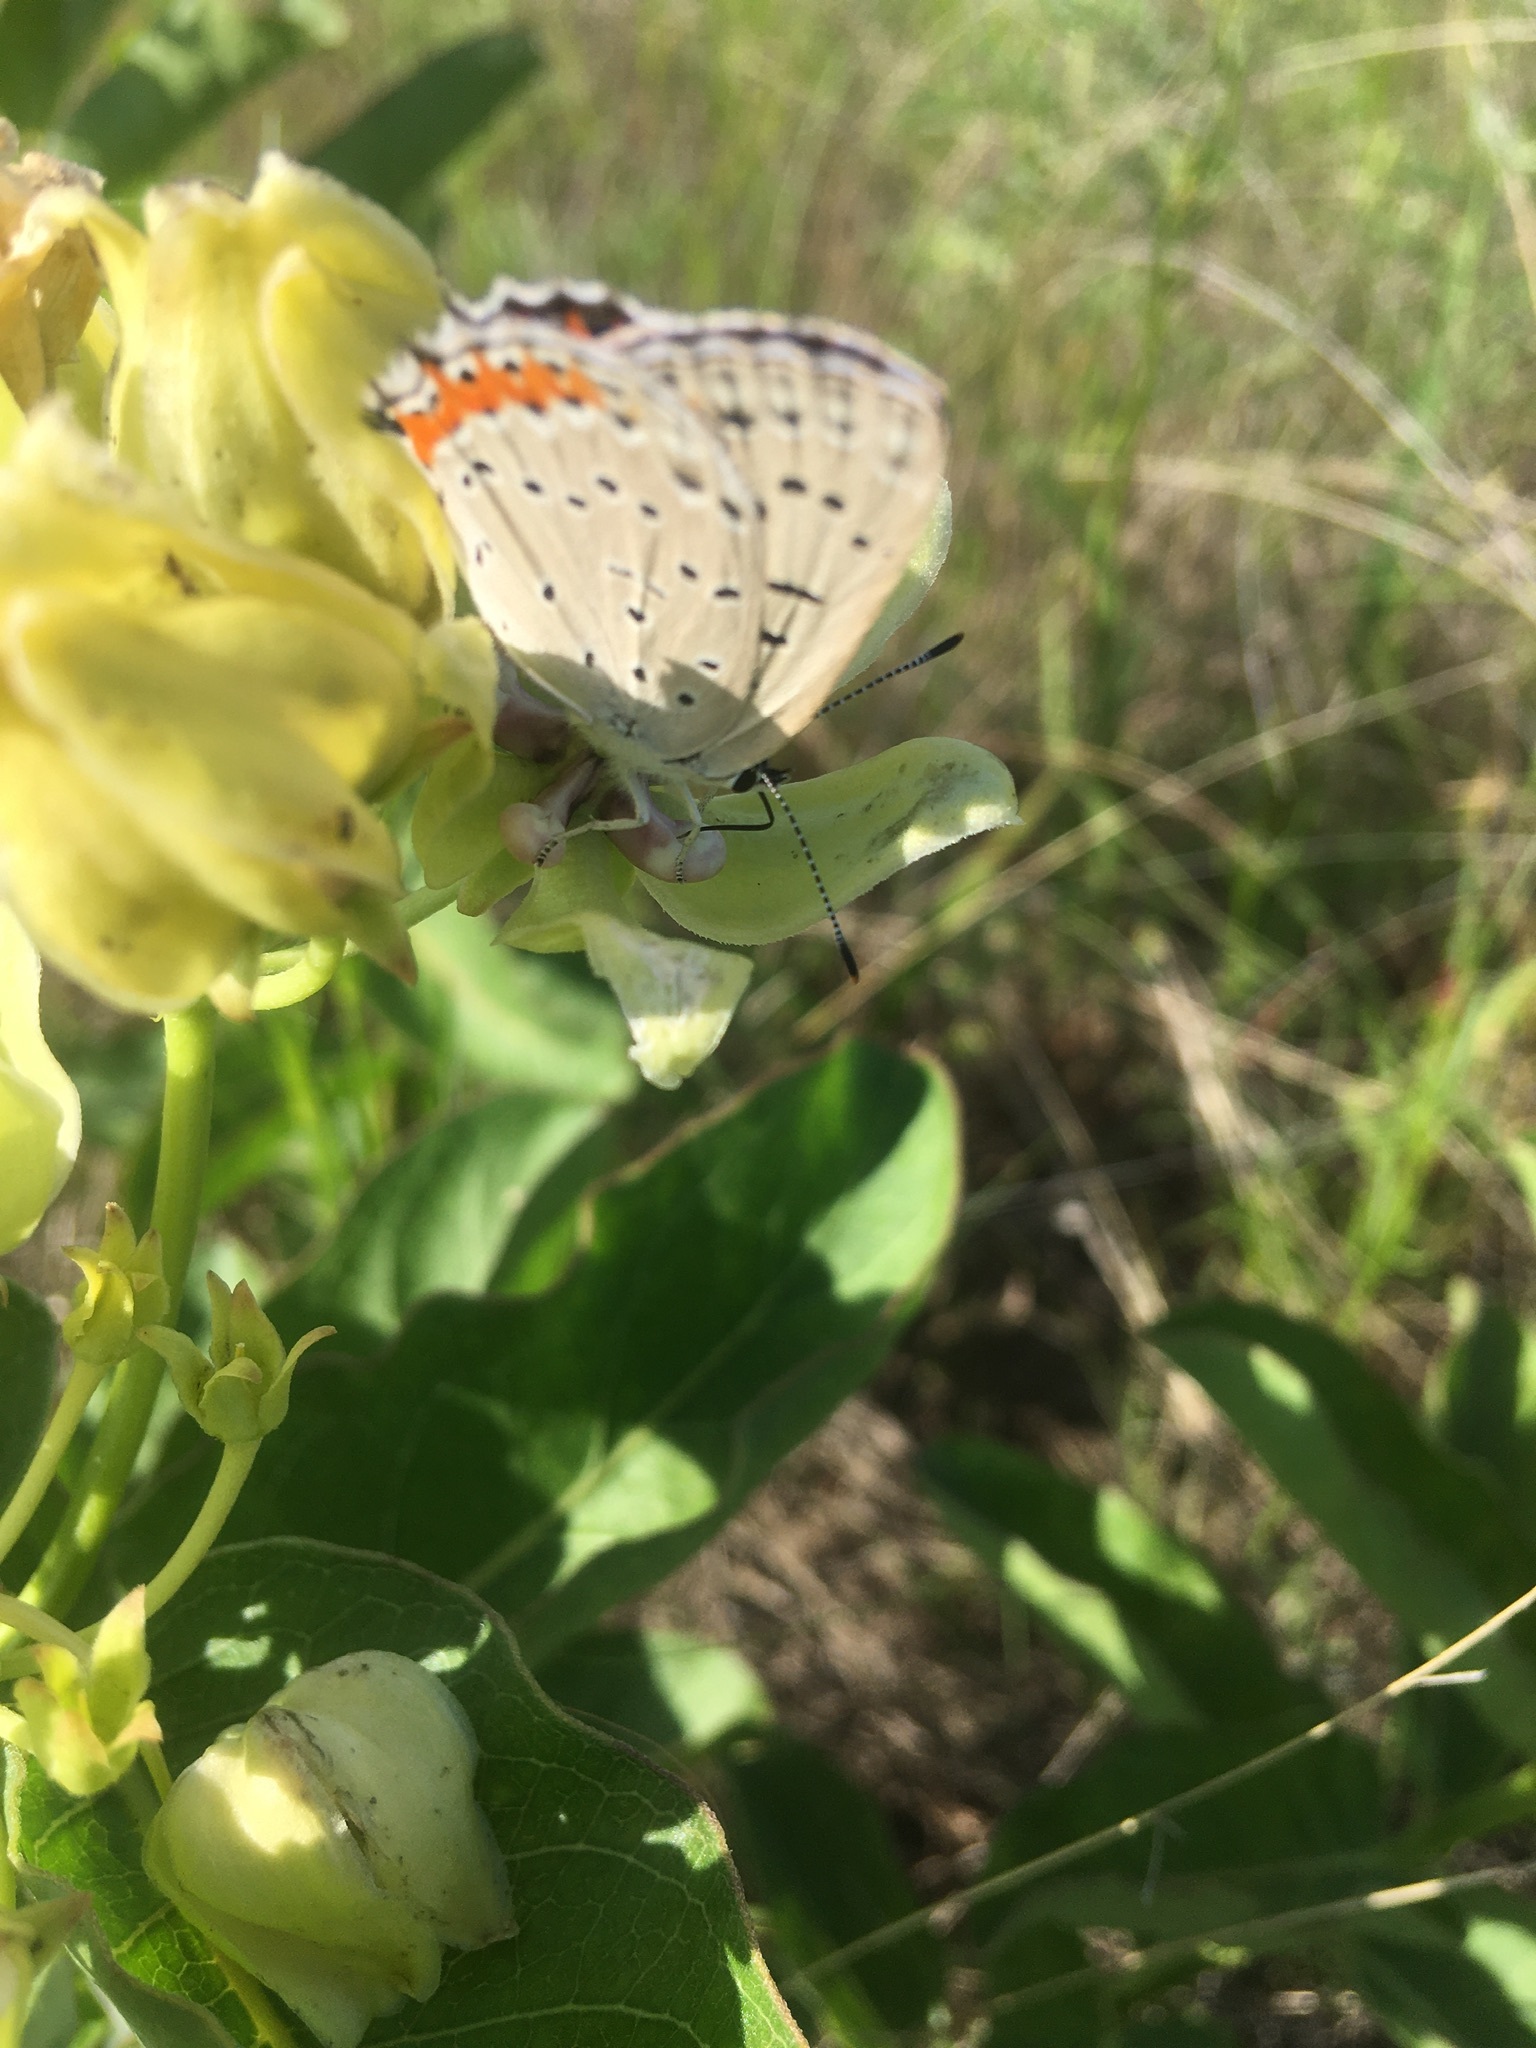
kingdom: Animalia
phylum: Arthropoda
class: Insecta
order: Lepidoptera
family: Lycaenidae
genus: Tharsalea
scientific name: Tharsalea dione
